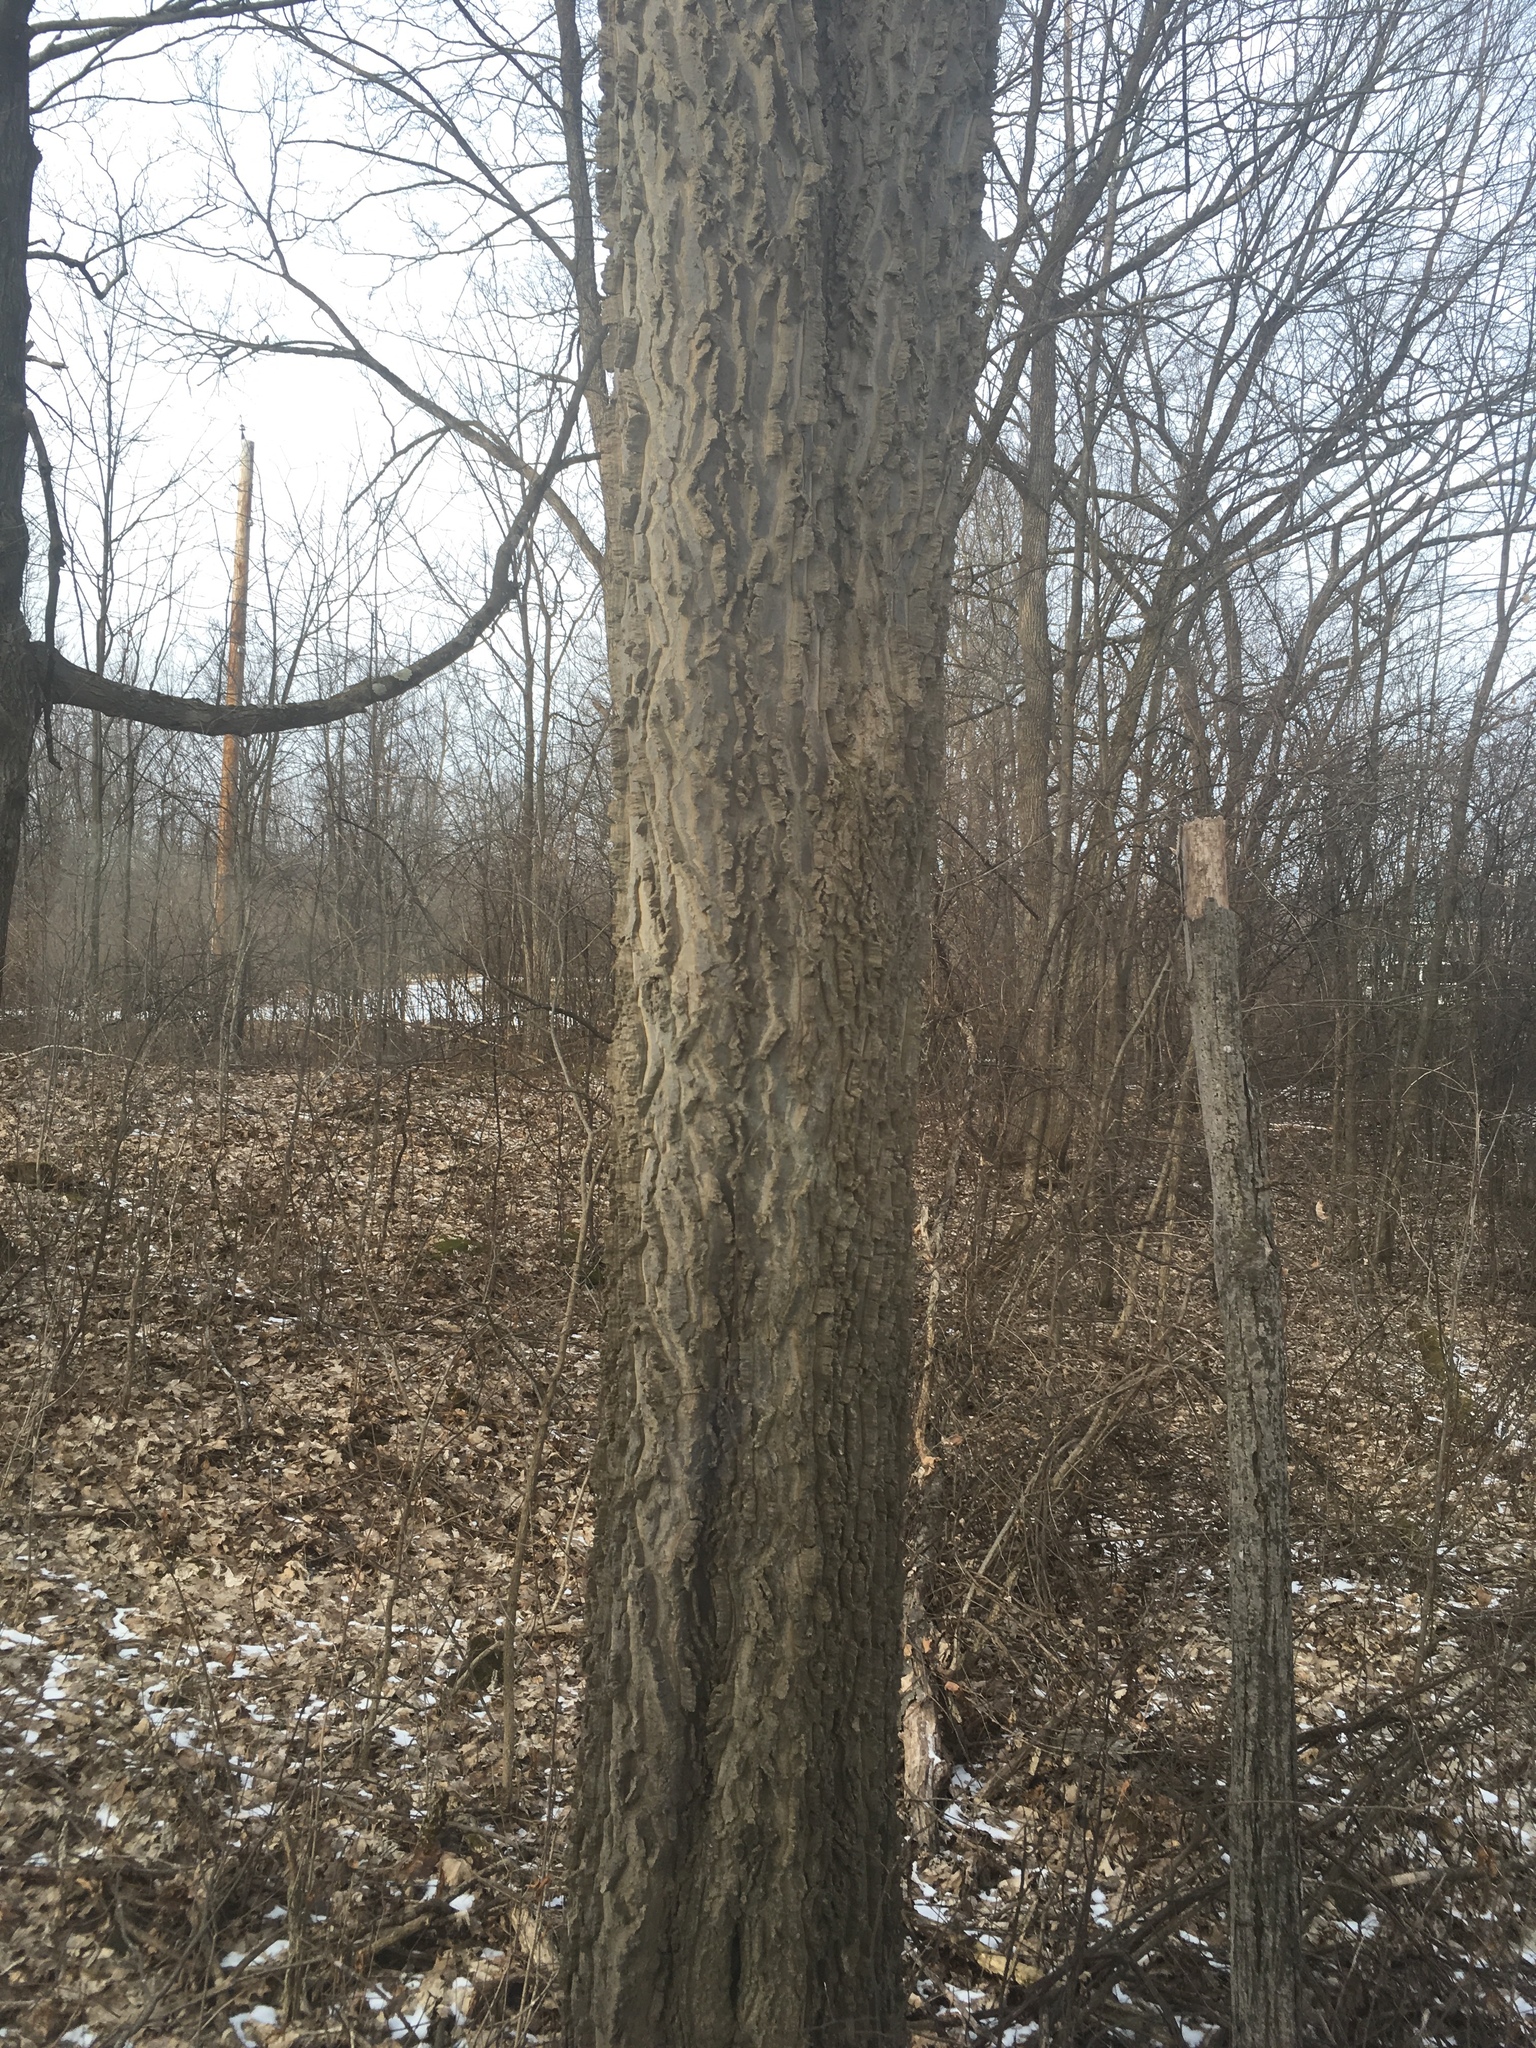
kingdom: Plantae
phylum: Tracheophyta
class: Magnoliopsida
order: Rosales
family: Cannabaceae
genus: Celtis
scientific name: Celtis occidentalis
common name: Common hackberry
